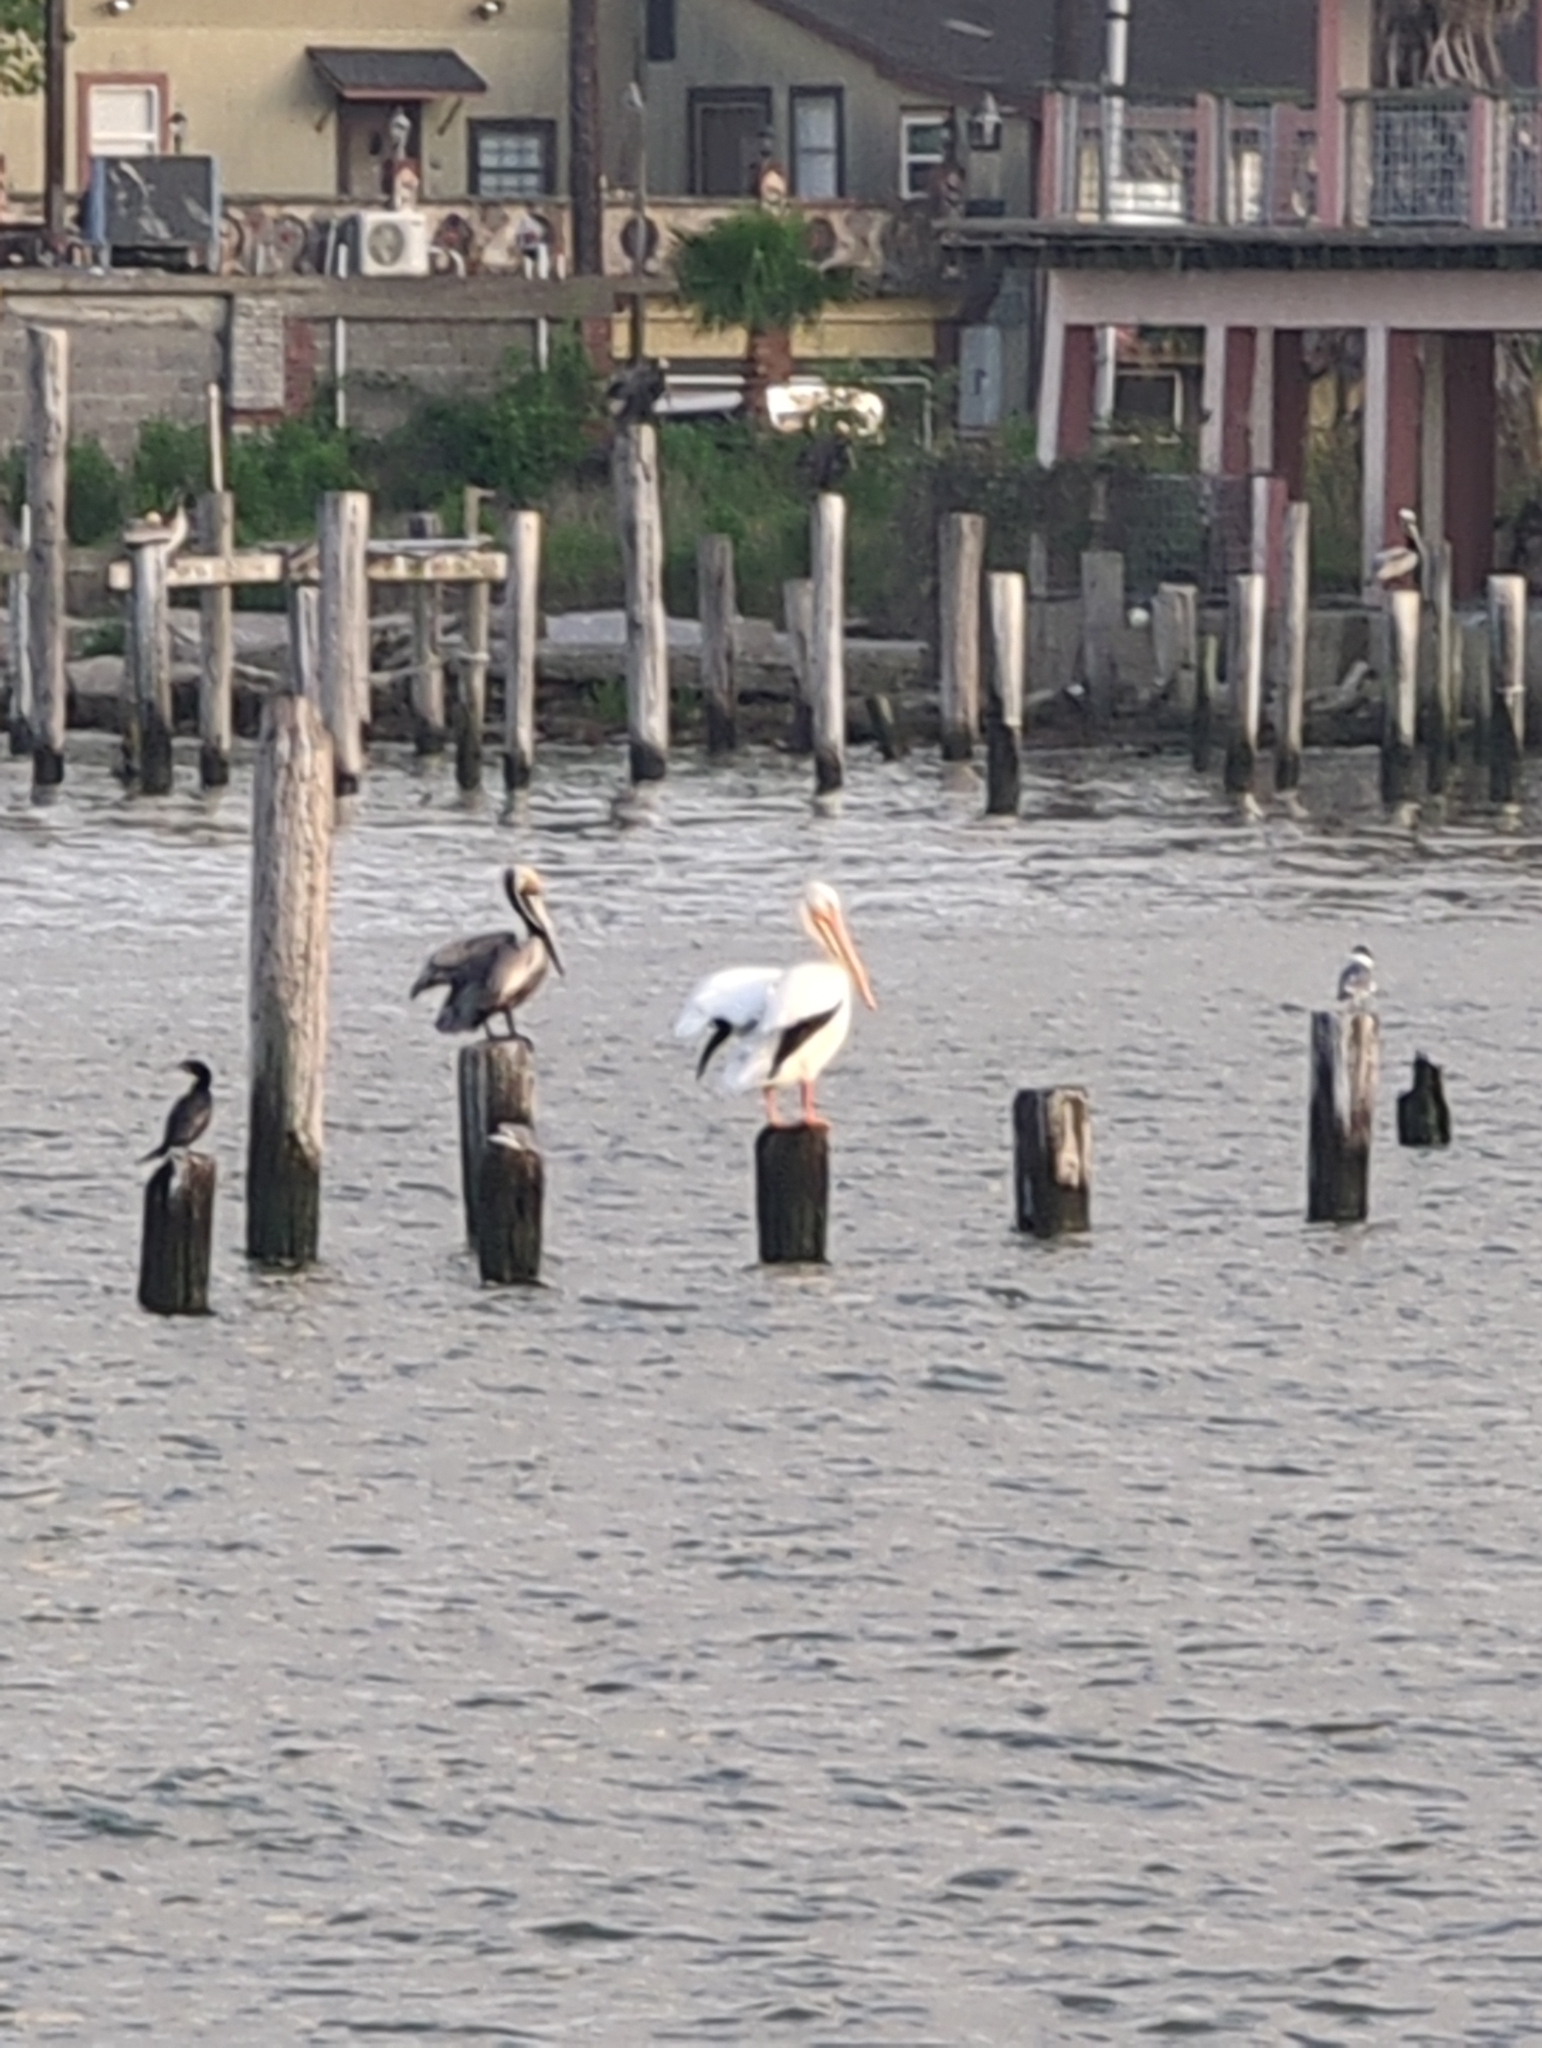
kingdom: Animalia
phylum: Chordata
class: Aves
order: Pelecaniformes
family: Pelecanidae
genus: Pelecanus
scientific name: Pelecanus erythrorhynchos
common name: American white pelican
